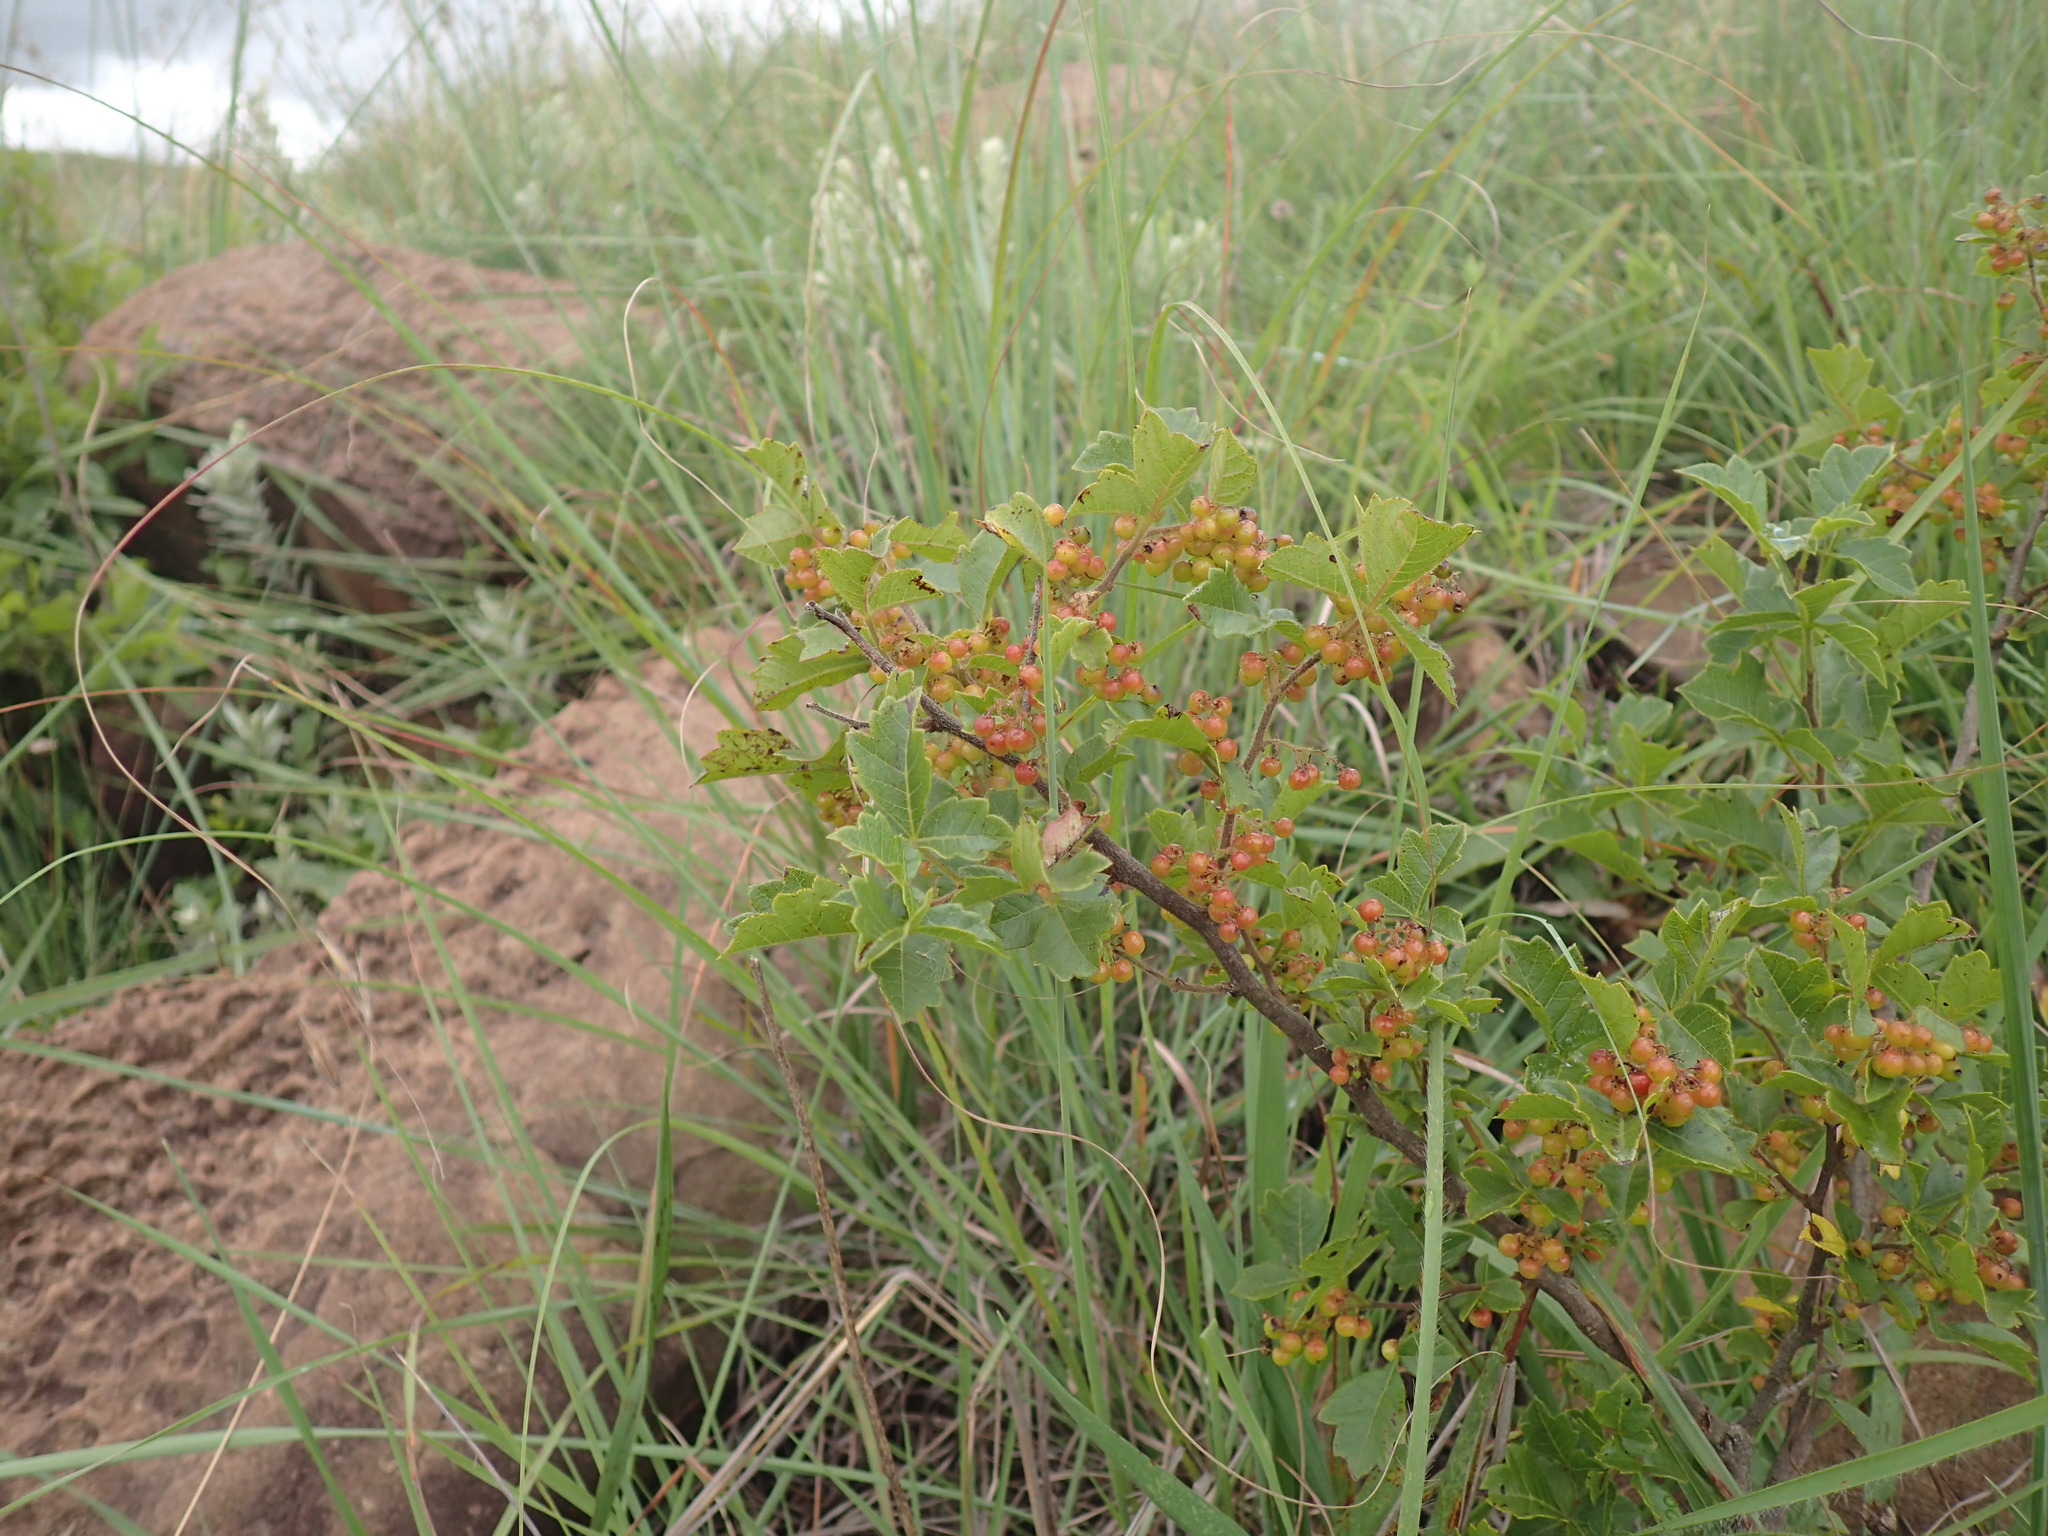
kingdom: Plantae
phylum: Tracheophyta
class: Magnoliopsida
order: Sapindales
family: Anacardiaceae
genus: Searsia
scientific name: Searsia dentata
